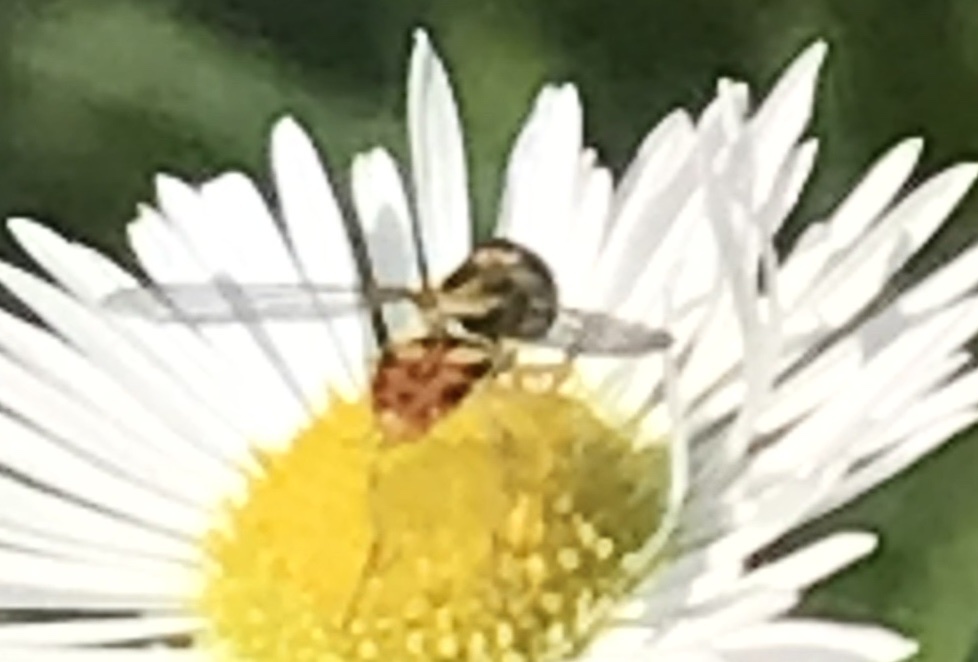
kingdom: Animalia
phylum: Arthropoda
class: Insecta
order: Diptera
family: Syrphidae
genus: Toxomerus
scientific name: Toxomerus marginatus
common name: Syrphid fly
